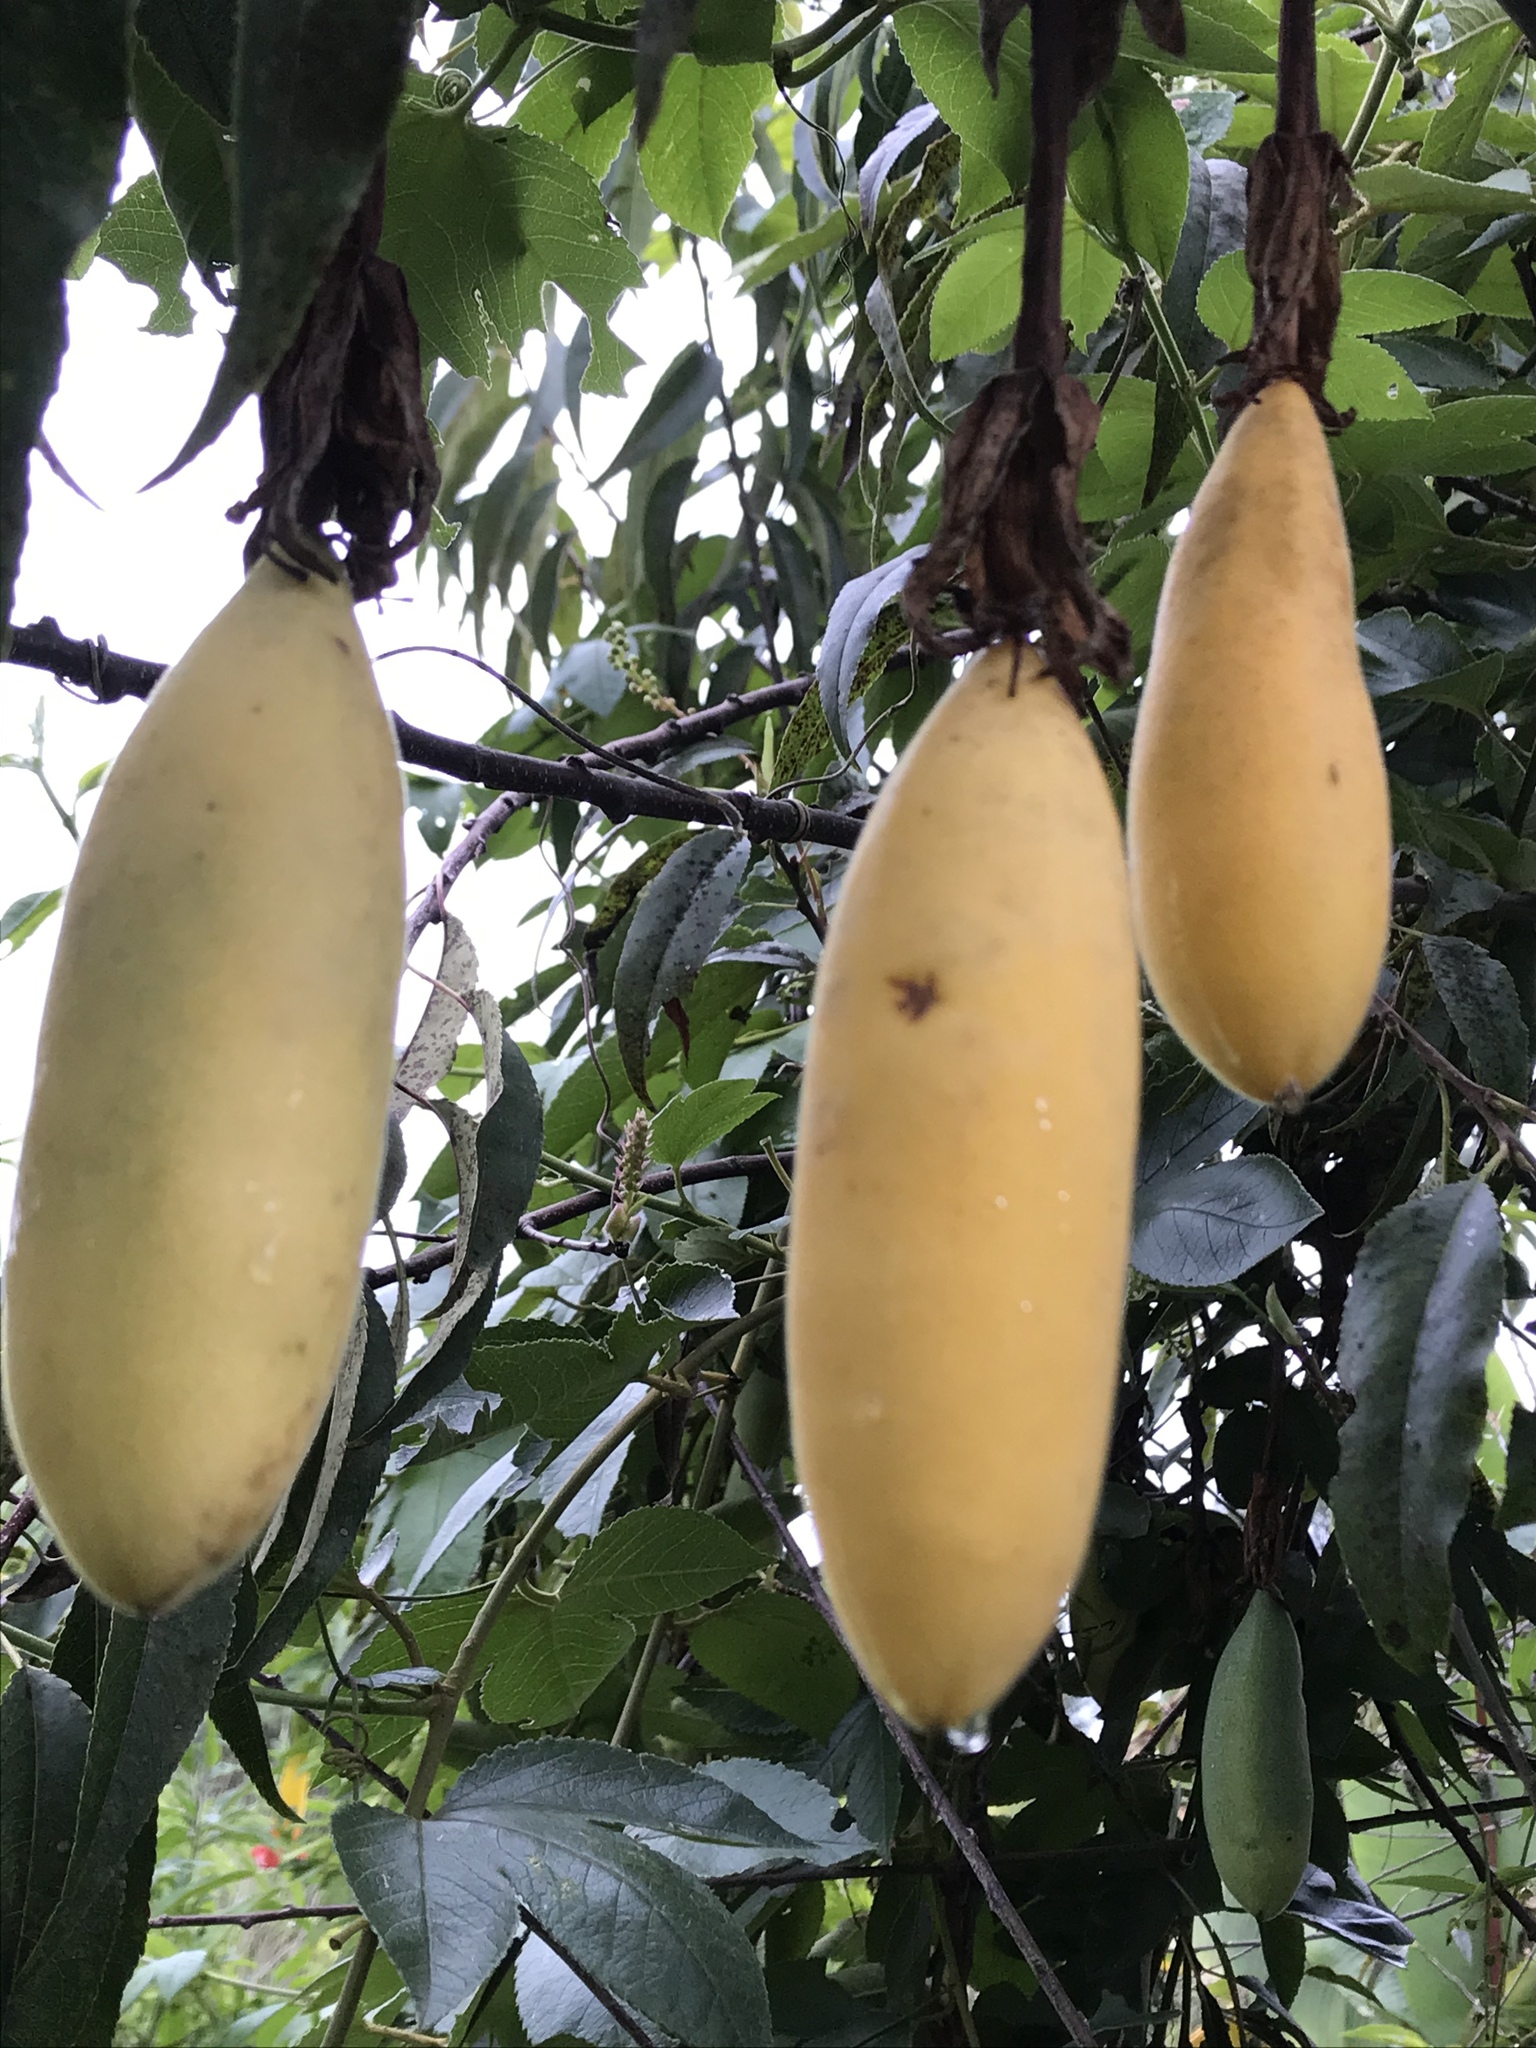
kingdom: Plantae
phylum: Tracheophyta
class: Magnoliopsida
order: Malpighiales
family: Passifloraceae
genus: Passiflora
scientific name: Passiflora tarminiana
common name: Banana poka
